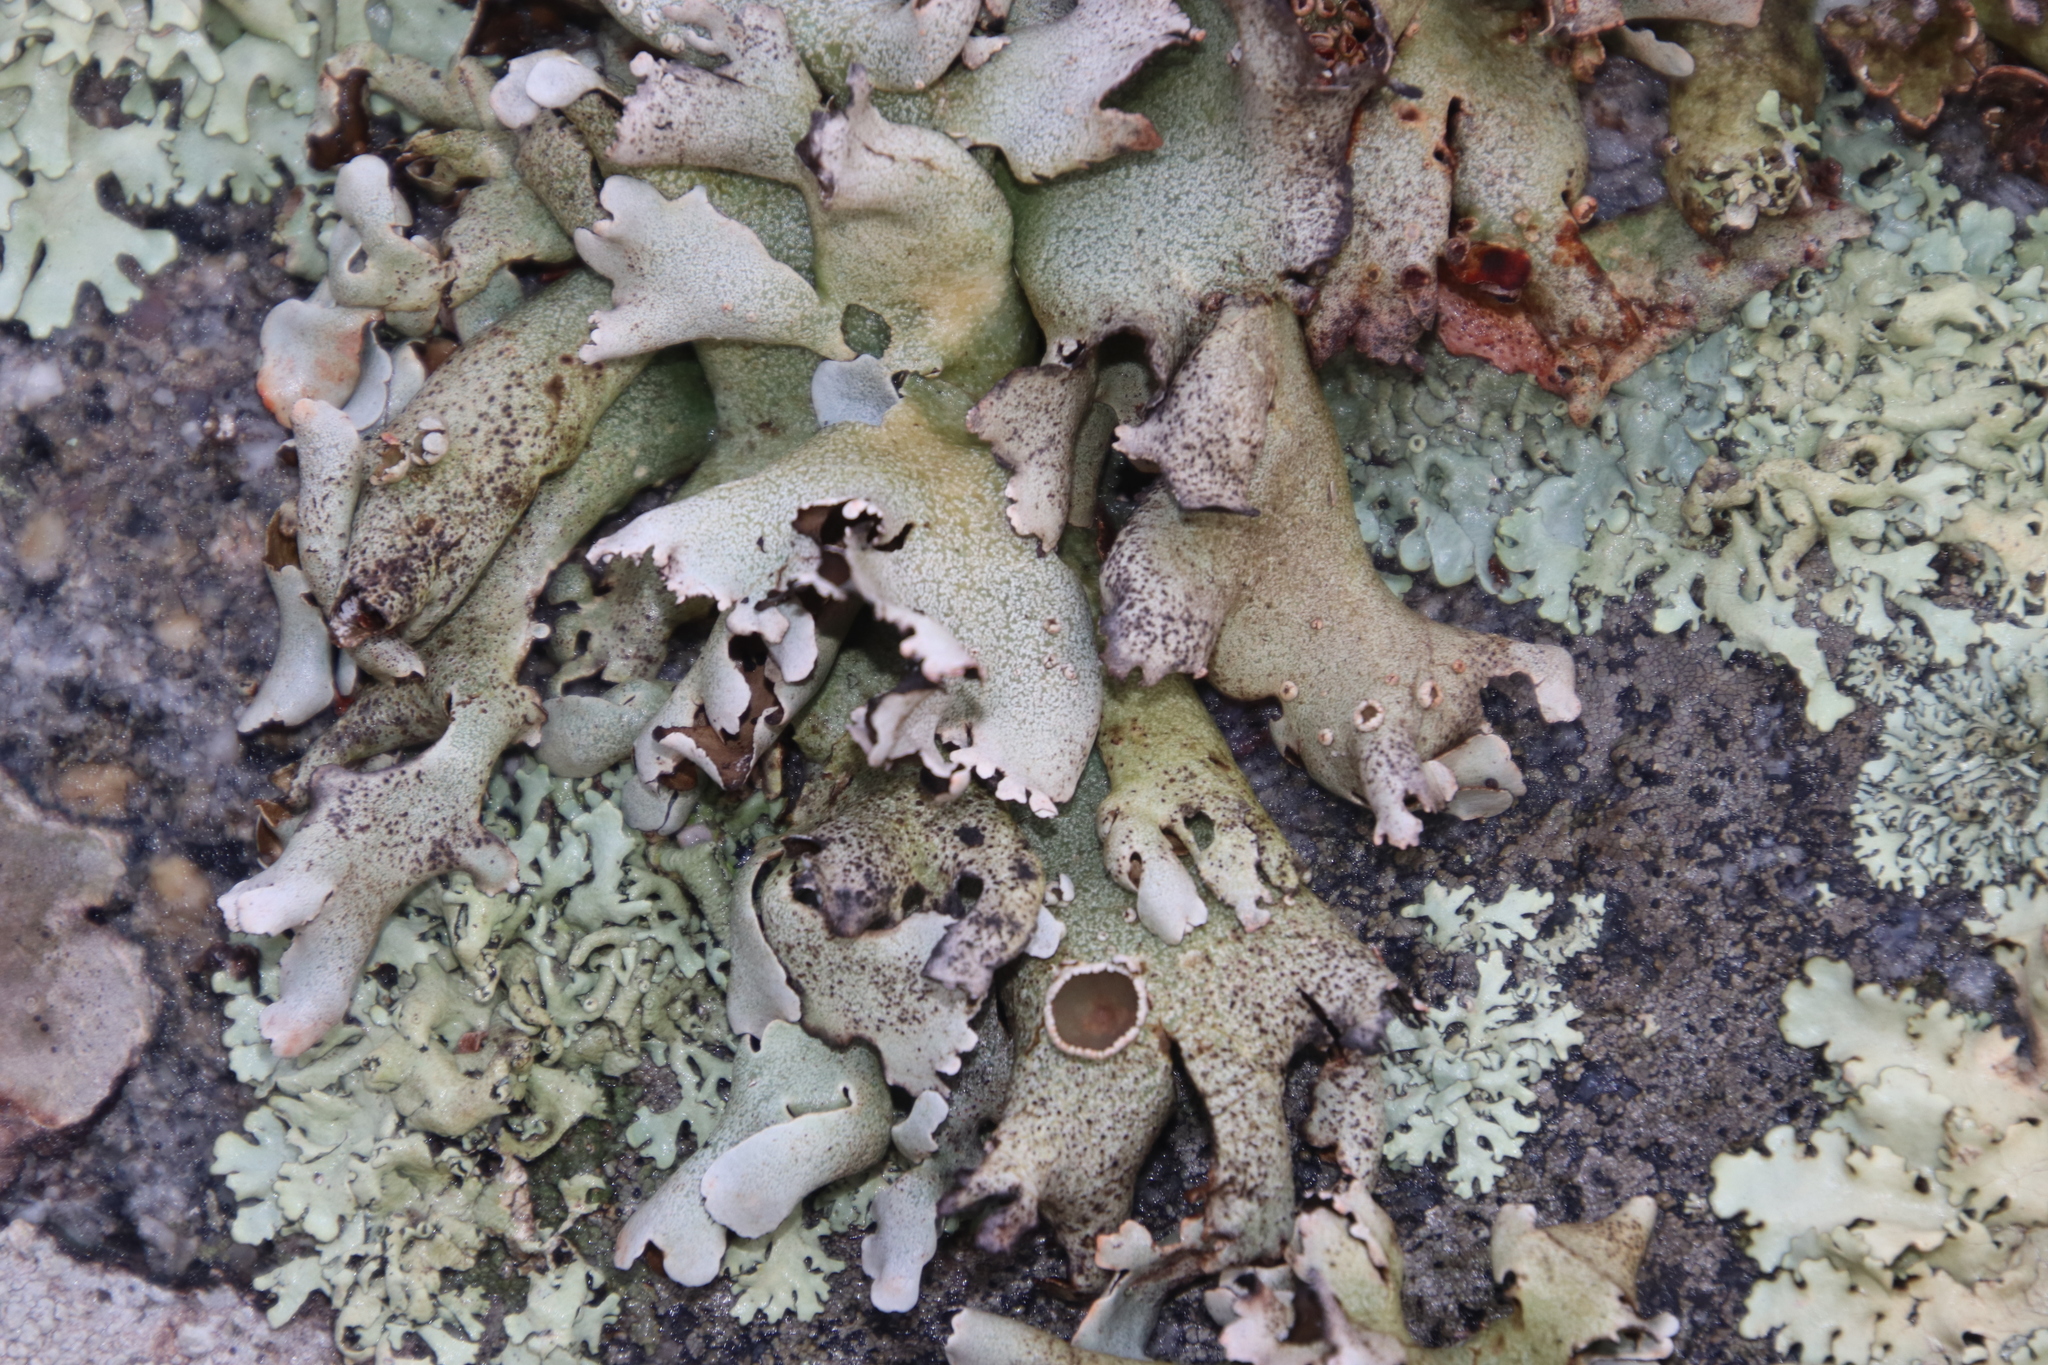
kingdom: Fungi
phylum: Ascomycota
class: Lecanoromycetes
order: Lecanorales
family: Parmeliaceae
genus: Xanthoparmelia
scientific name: Xanthoparmelia frondosa
